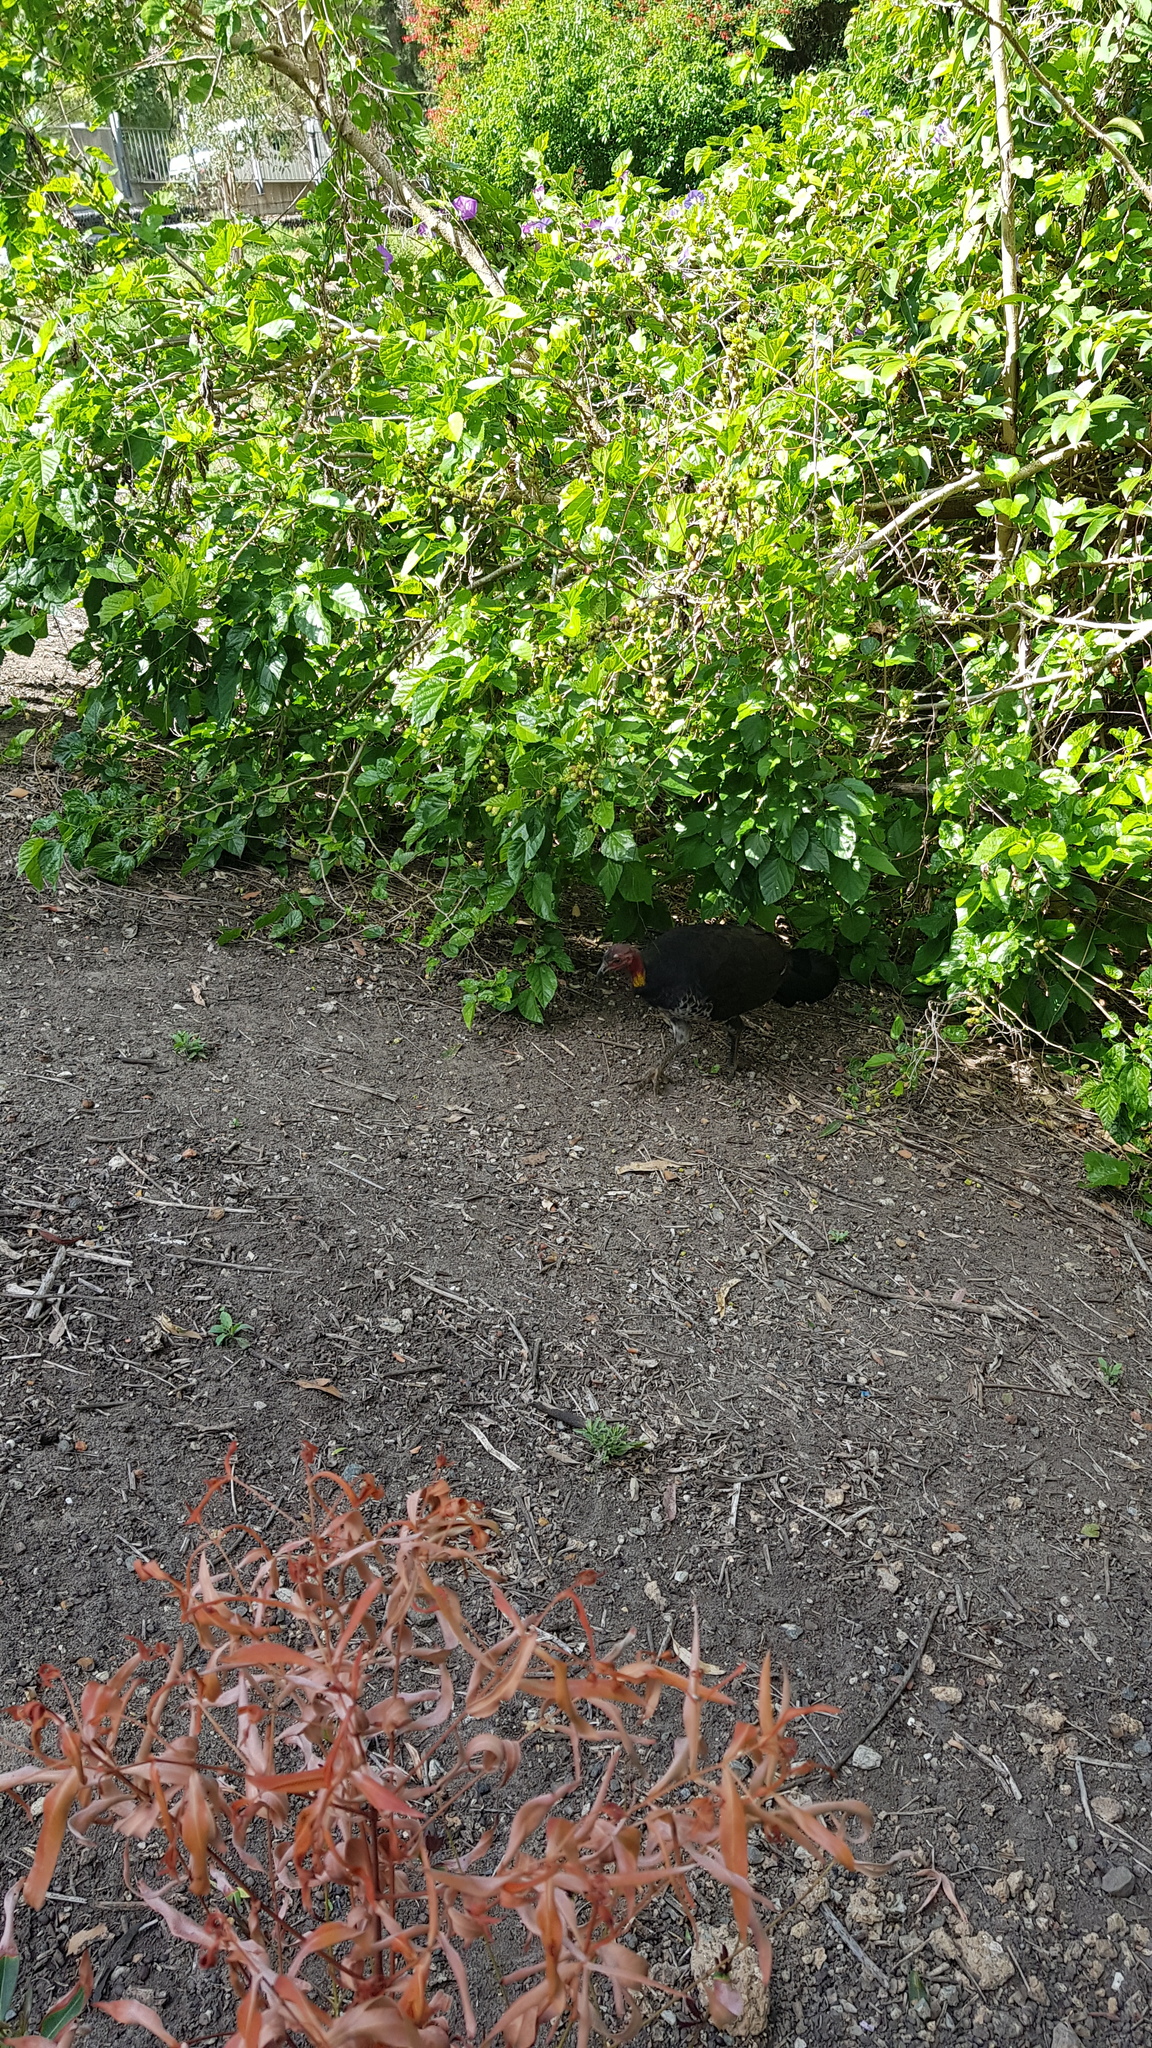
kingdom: Animalia
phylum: Chordata
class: Aves
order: Galliformes
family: Megapodiidae
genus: Alectura
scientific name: Alectura lathami
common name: Australian brushturkey
